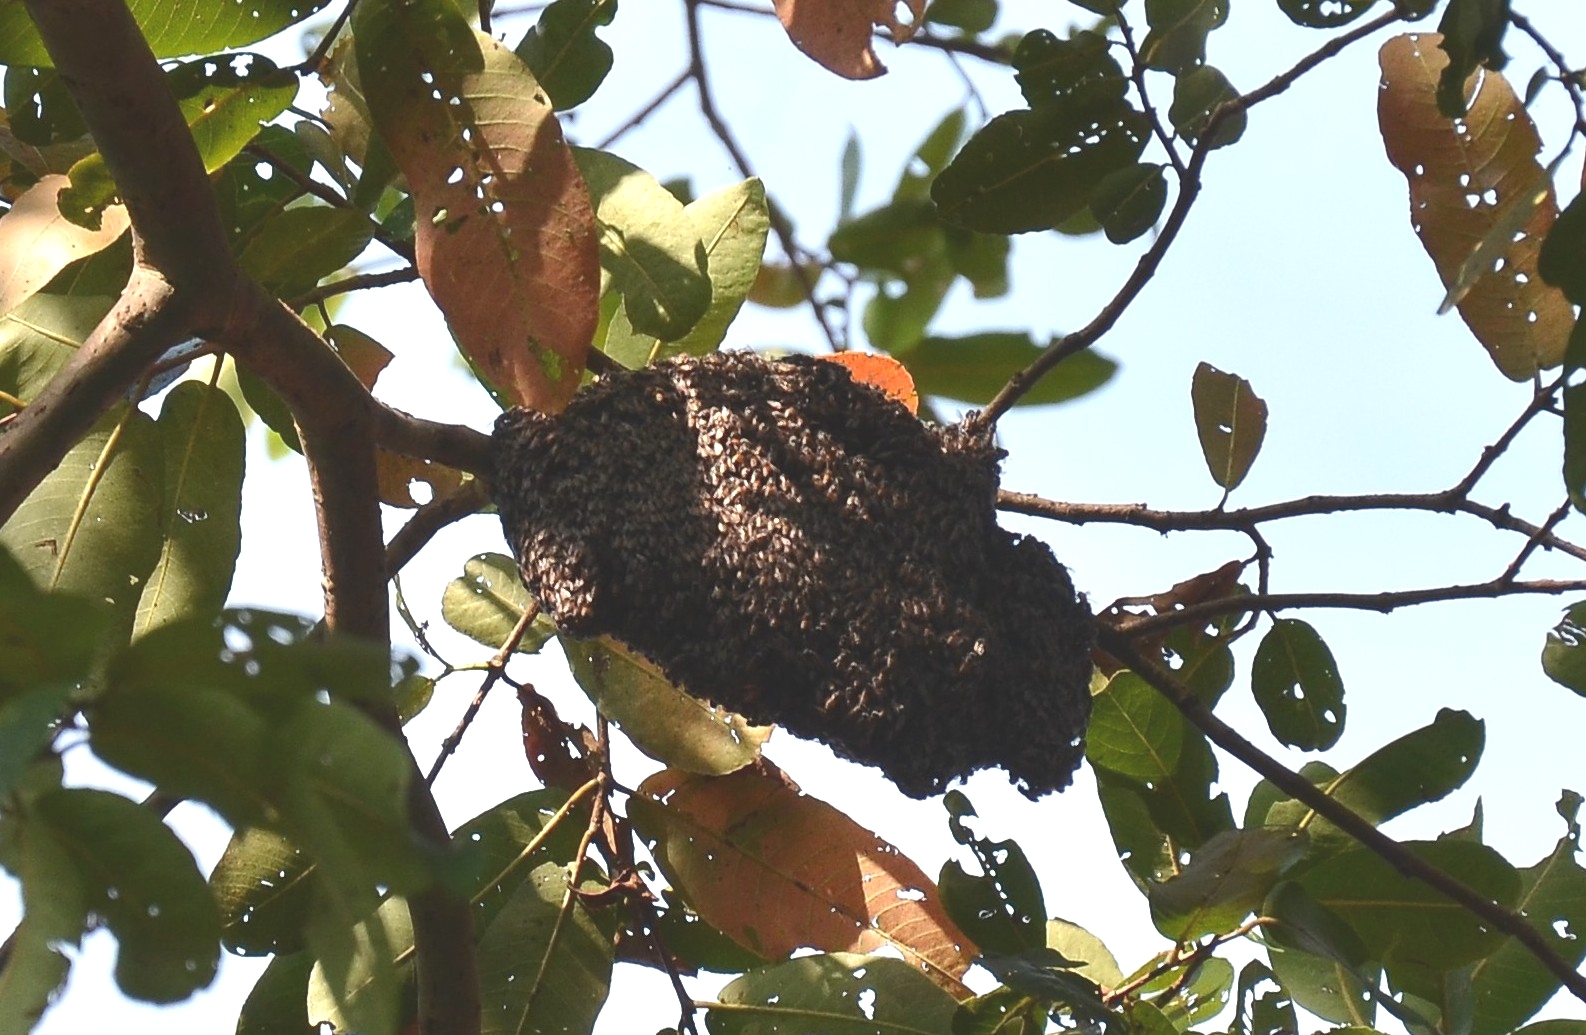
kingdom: Animalia
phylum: Arthropoda
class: Insecta
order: Hymenoptera
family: Apidae
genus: Apis
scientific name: Apis florea
